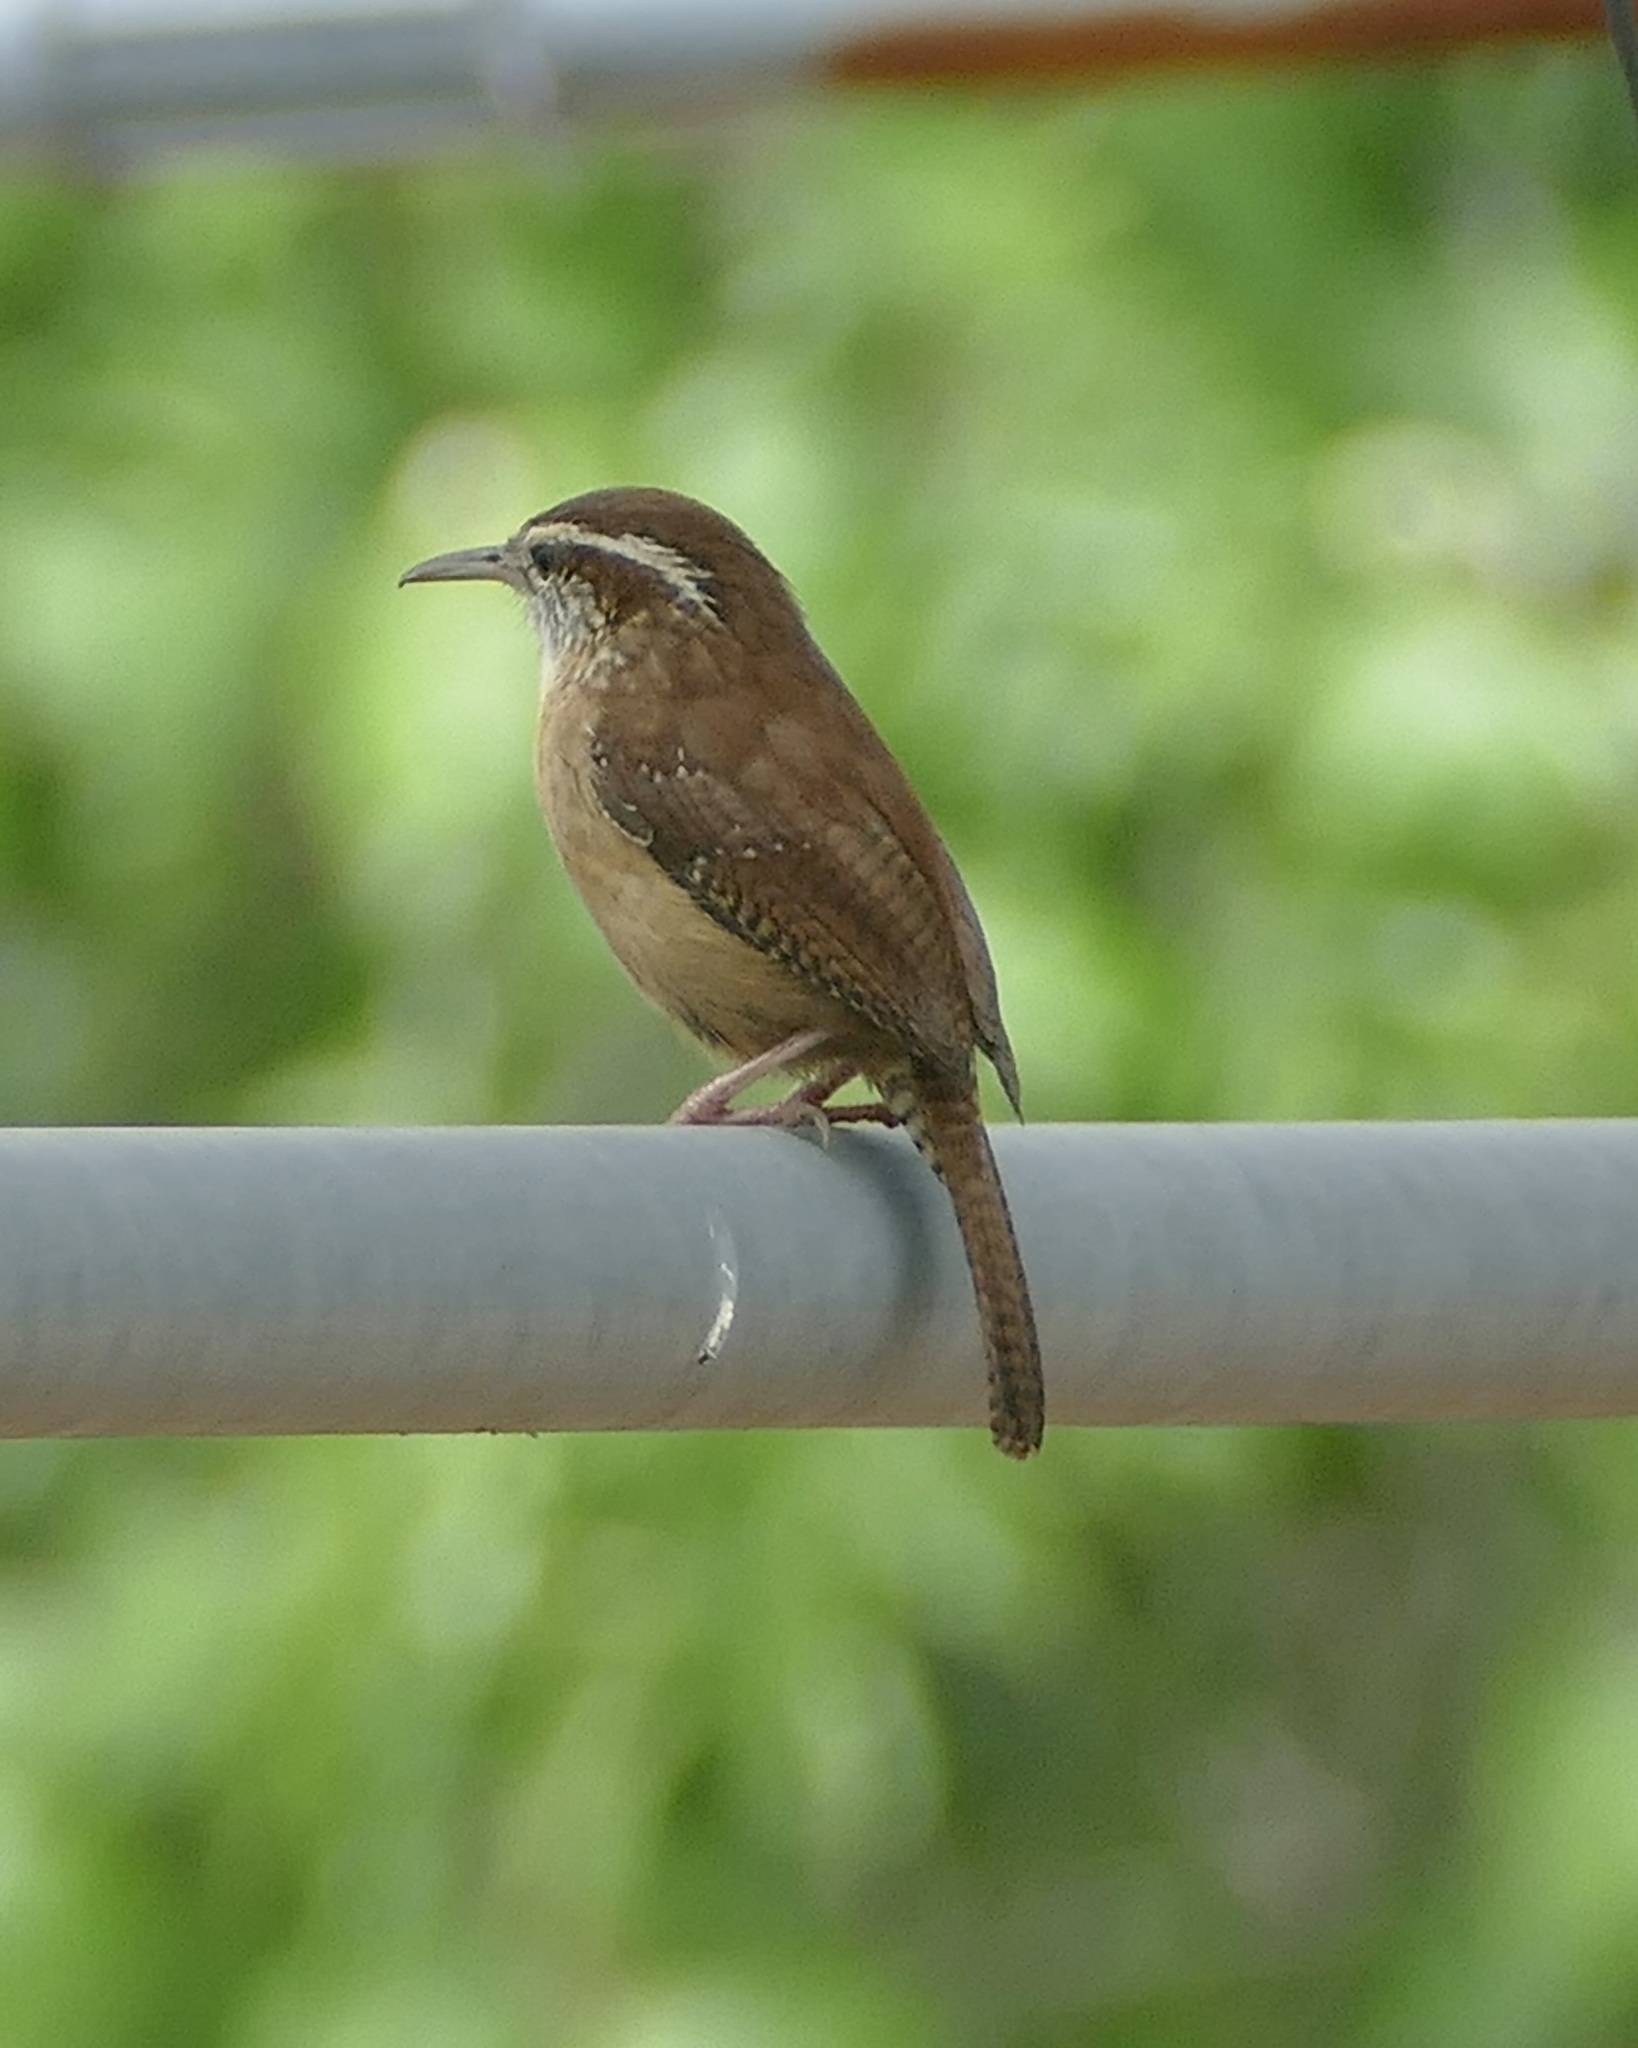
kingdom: Animalia
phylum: Chordata
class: Aves
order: Passeriformes
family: Troglodytidae
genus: Thryothorus
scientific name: Thryothorus ludovicianus
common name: Carolina wren
